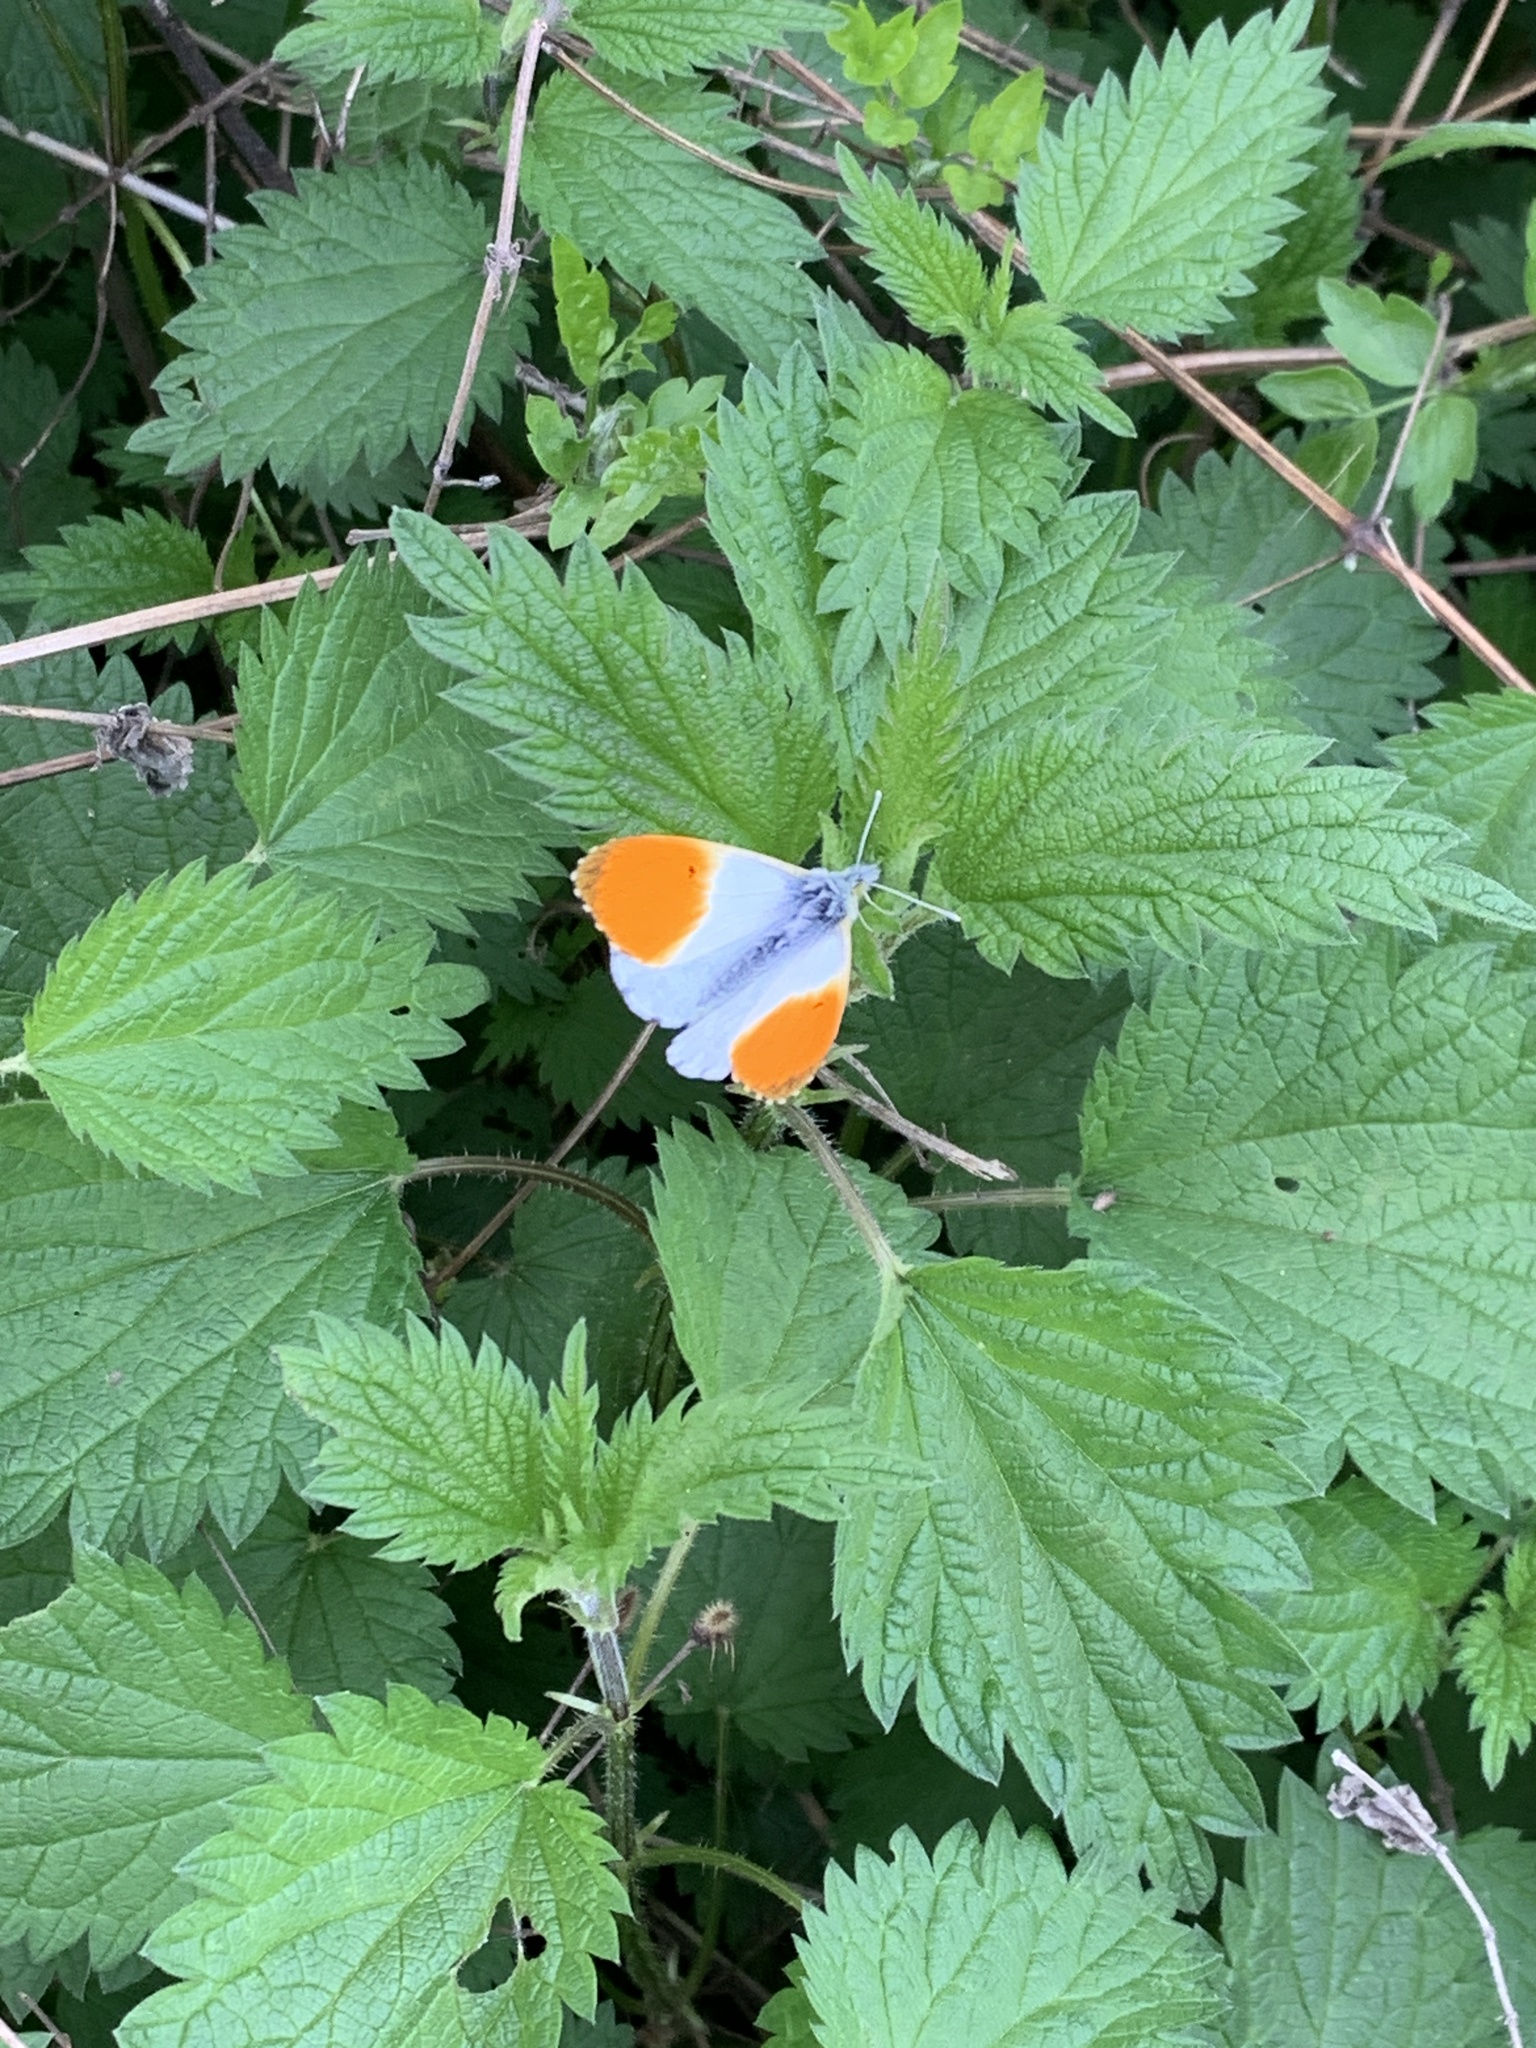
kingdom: Animalia
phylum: Arthropoda
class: Insecta
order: Lepidoptera
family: Pieridae
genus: Anthocharis
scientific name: Anthocharis cardamines
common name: Orange-tip
